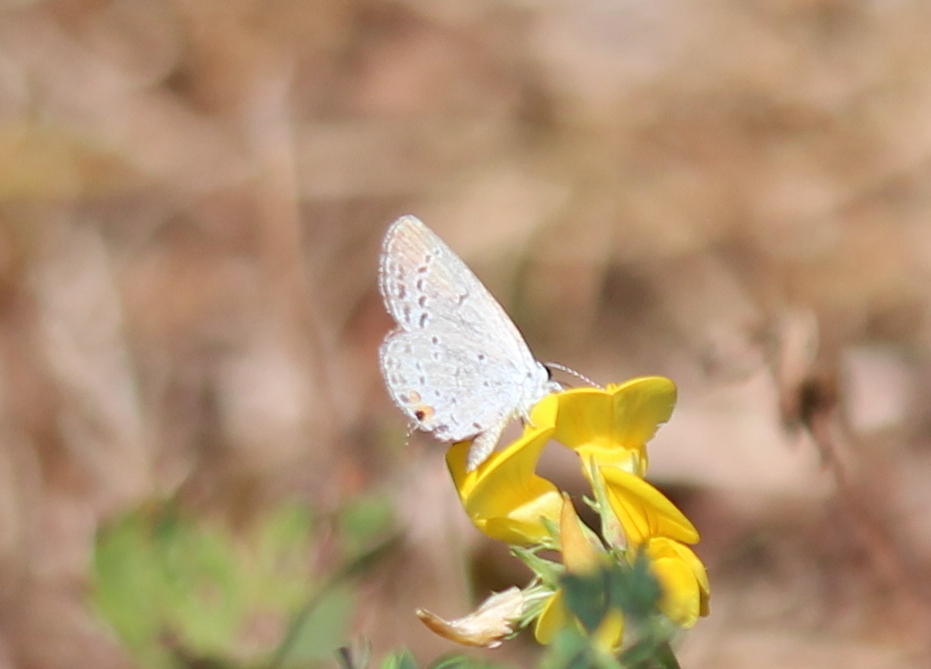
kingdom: Animalia
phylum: Arthropoda
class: Insecta
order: Lepidoptera
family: Lycaenidae
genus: Elkalyce
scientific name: Elkalyce comyntas
